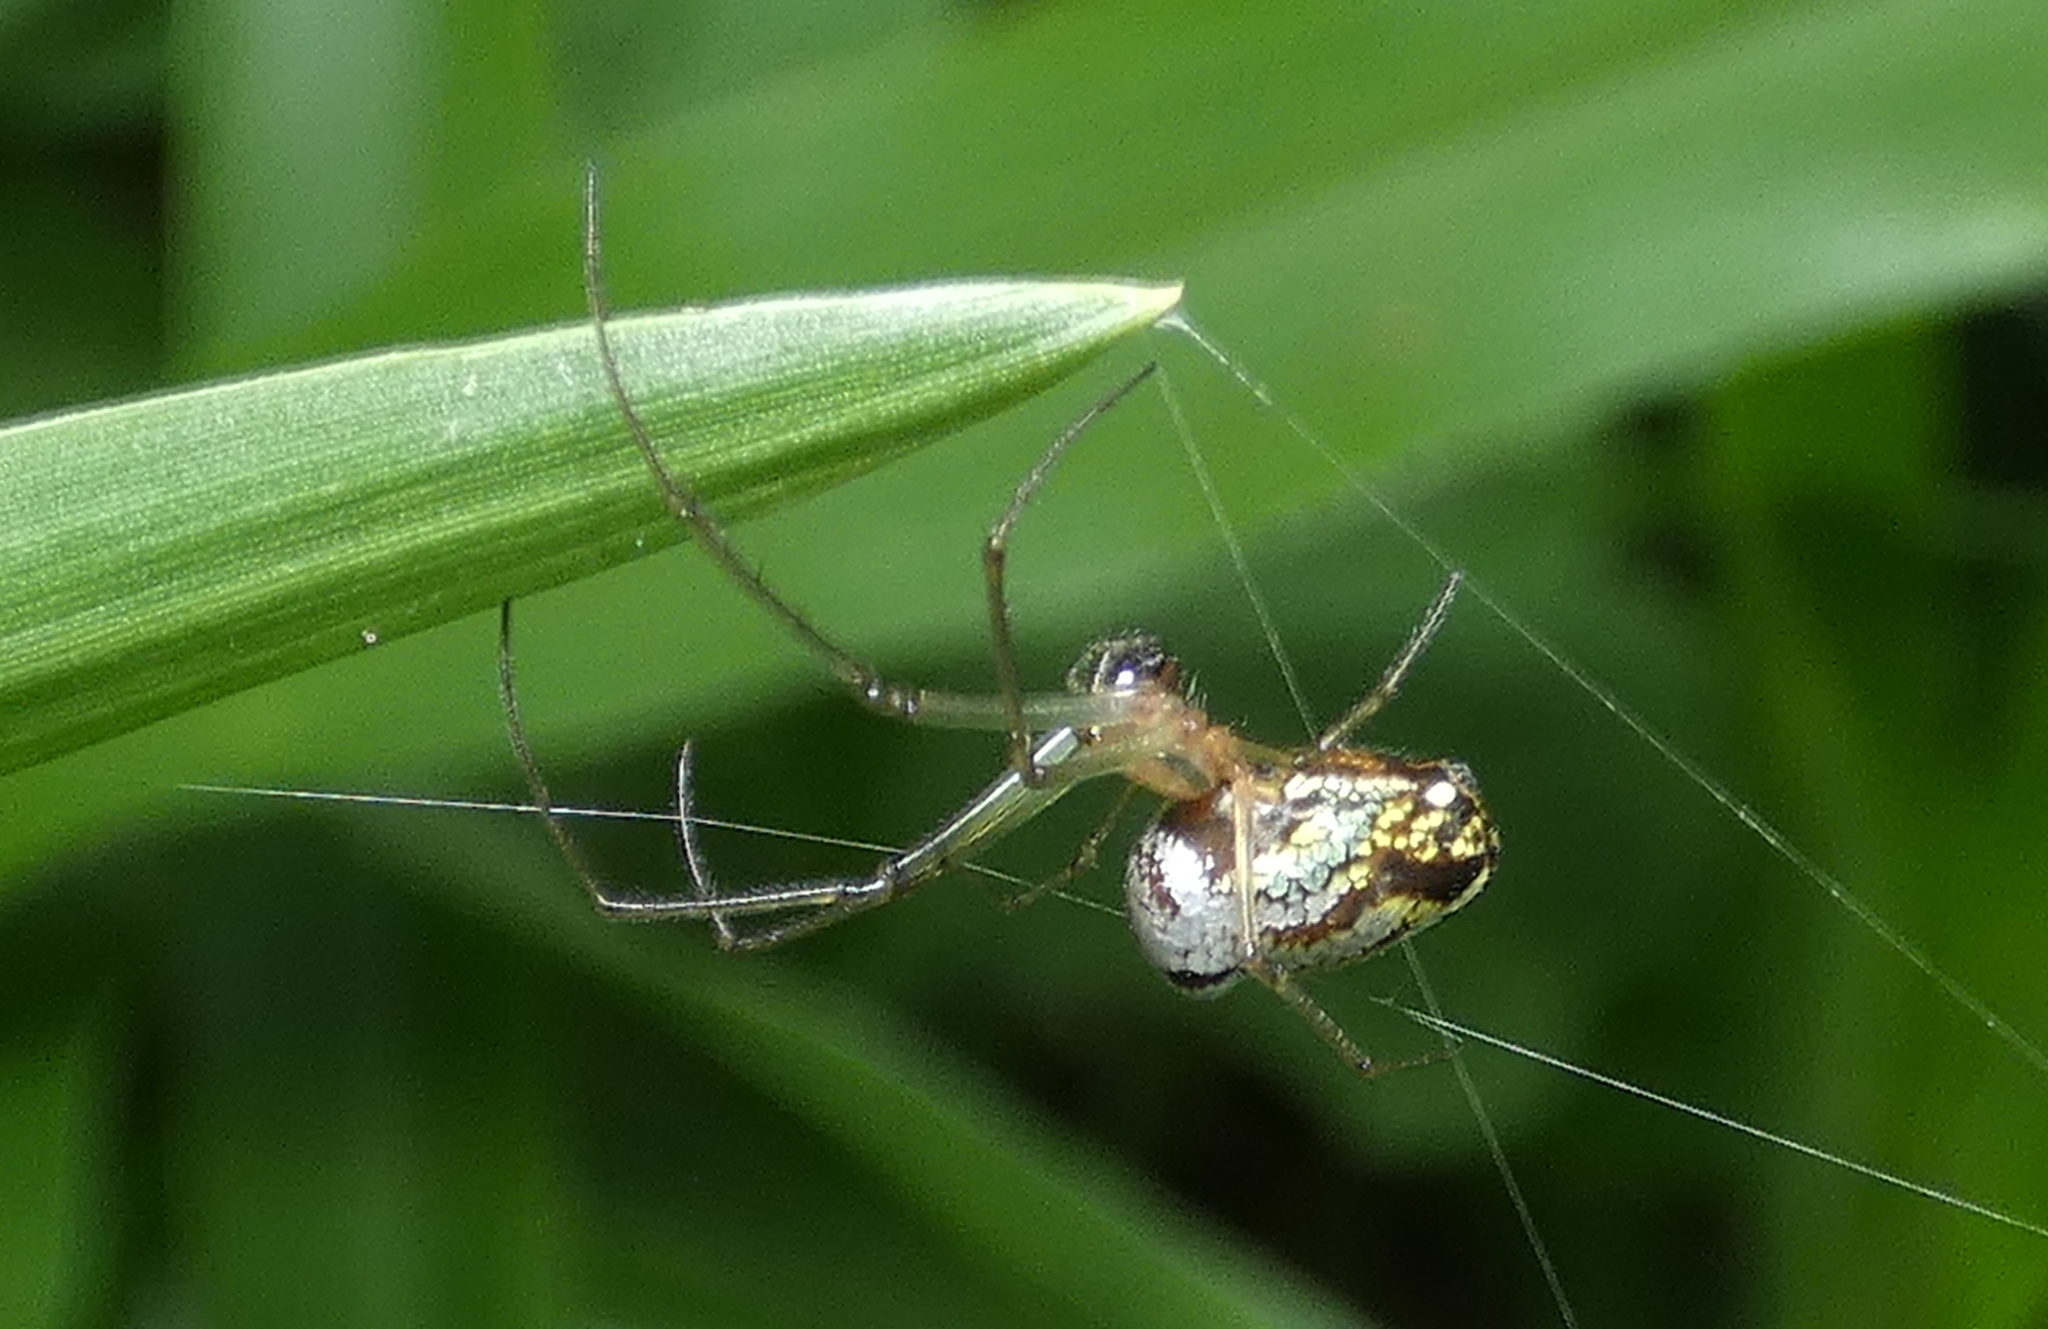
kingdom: Animalia
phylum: Arthropoda
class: Arachnida
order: Araneae
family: Tetragnathidae
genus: Leucauge
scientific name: Leucauge volupis
